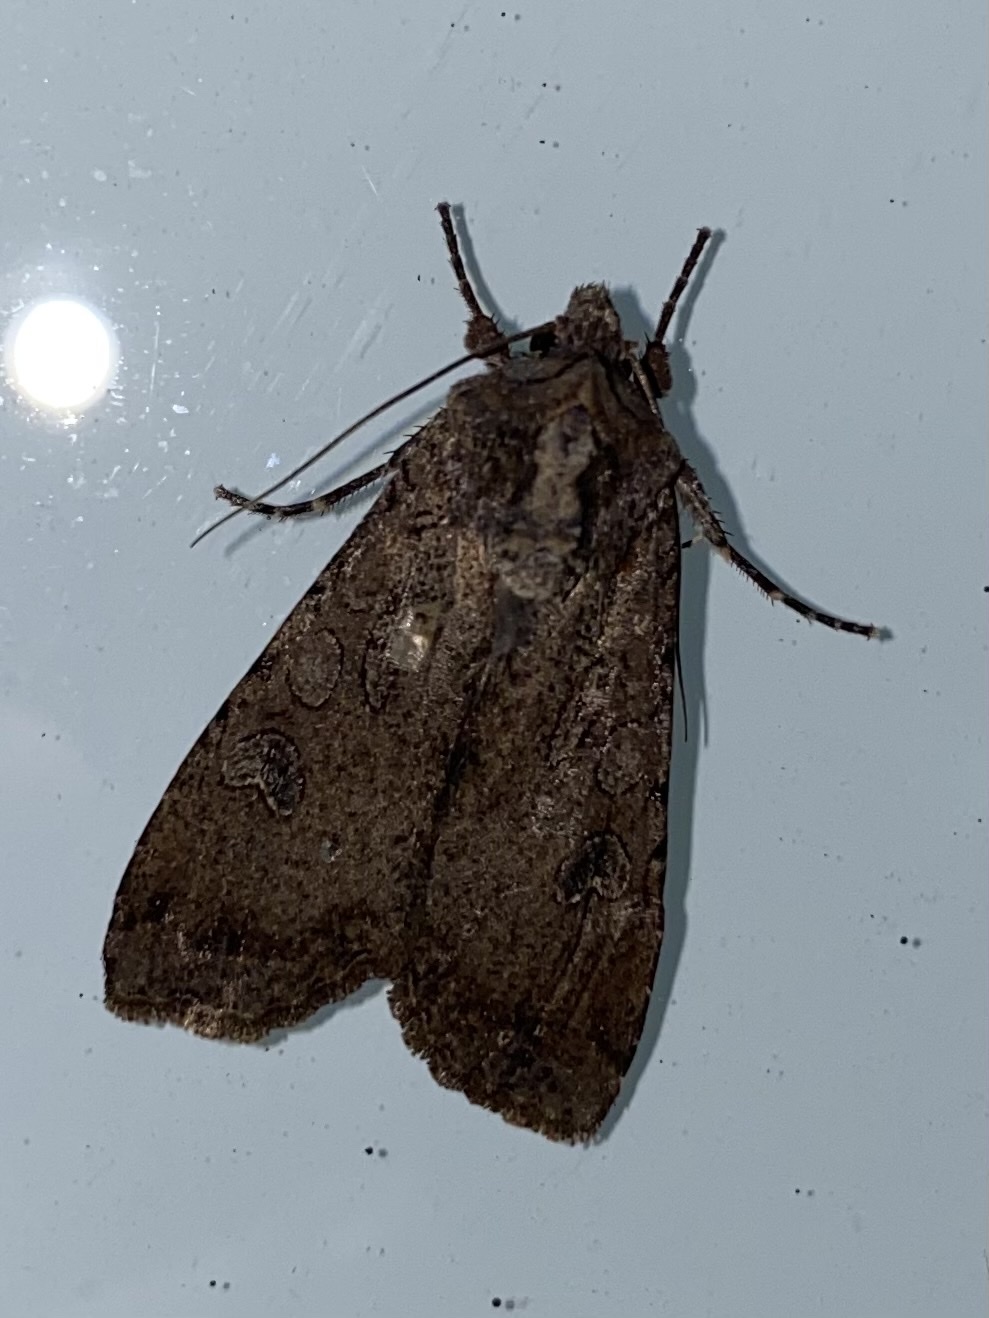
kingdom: Animalia
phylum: Arthropoda
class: Insecta
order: Lepidoptera
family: Noctuidae
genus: Peridroma
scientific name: Peridroma saucia
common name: Pearly underwing
